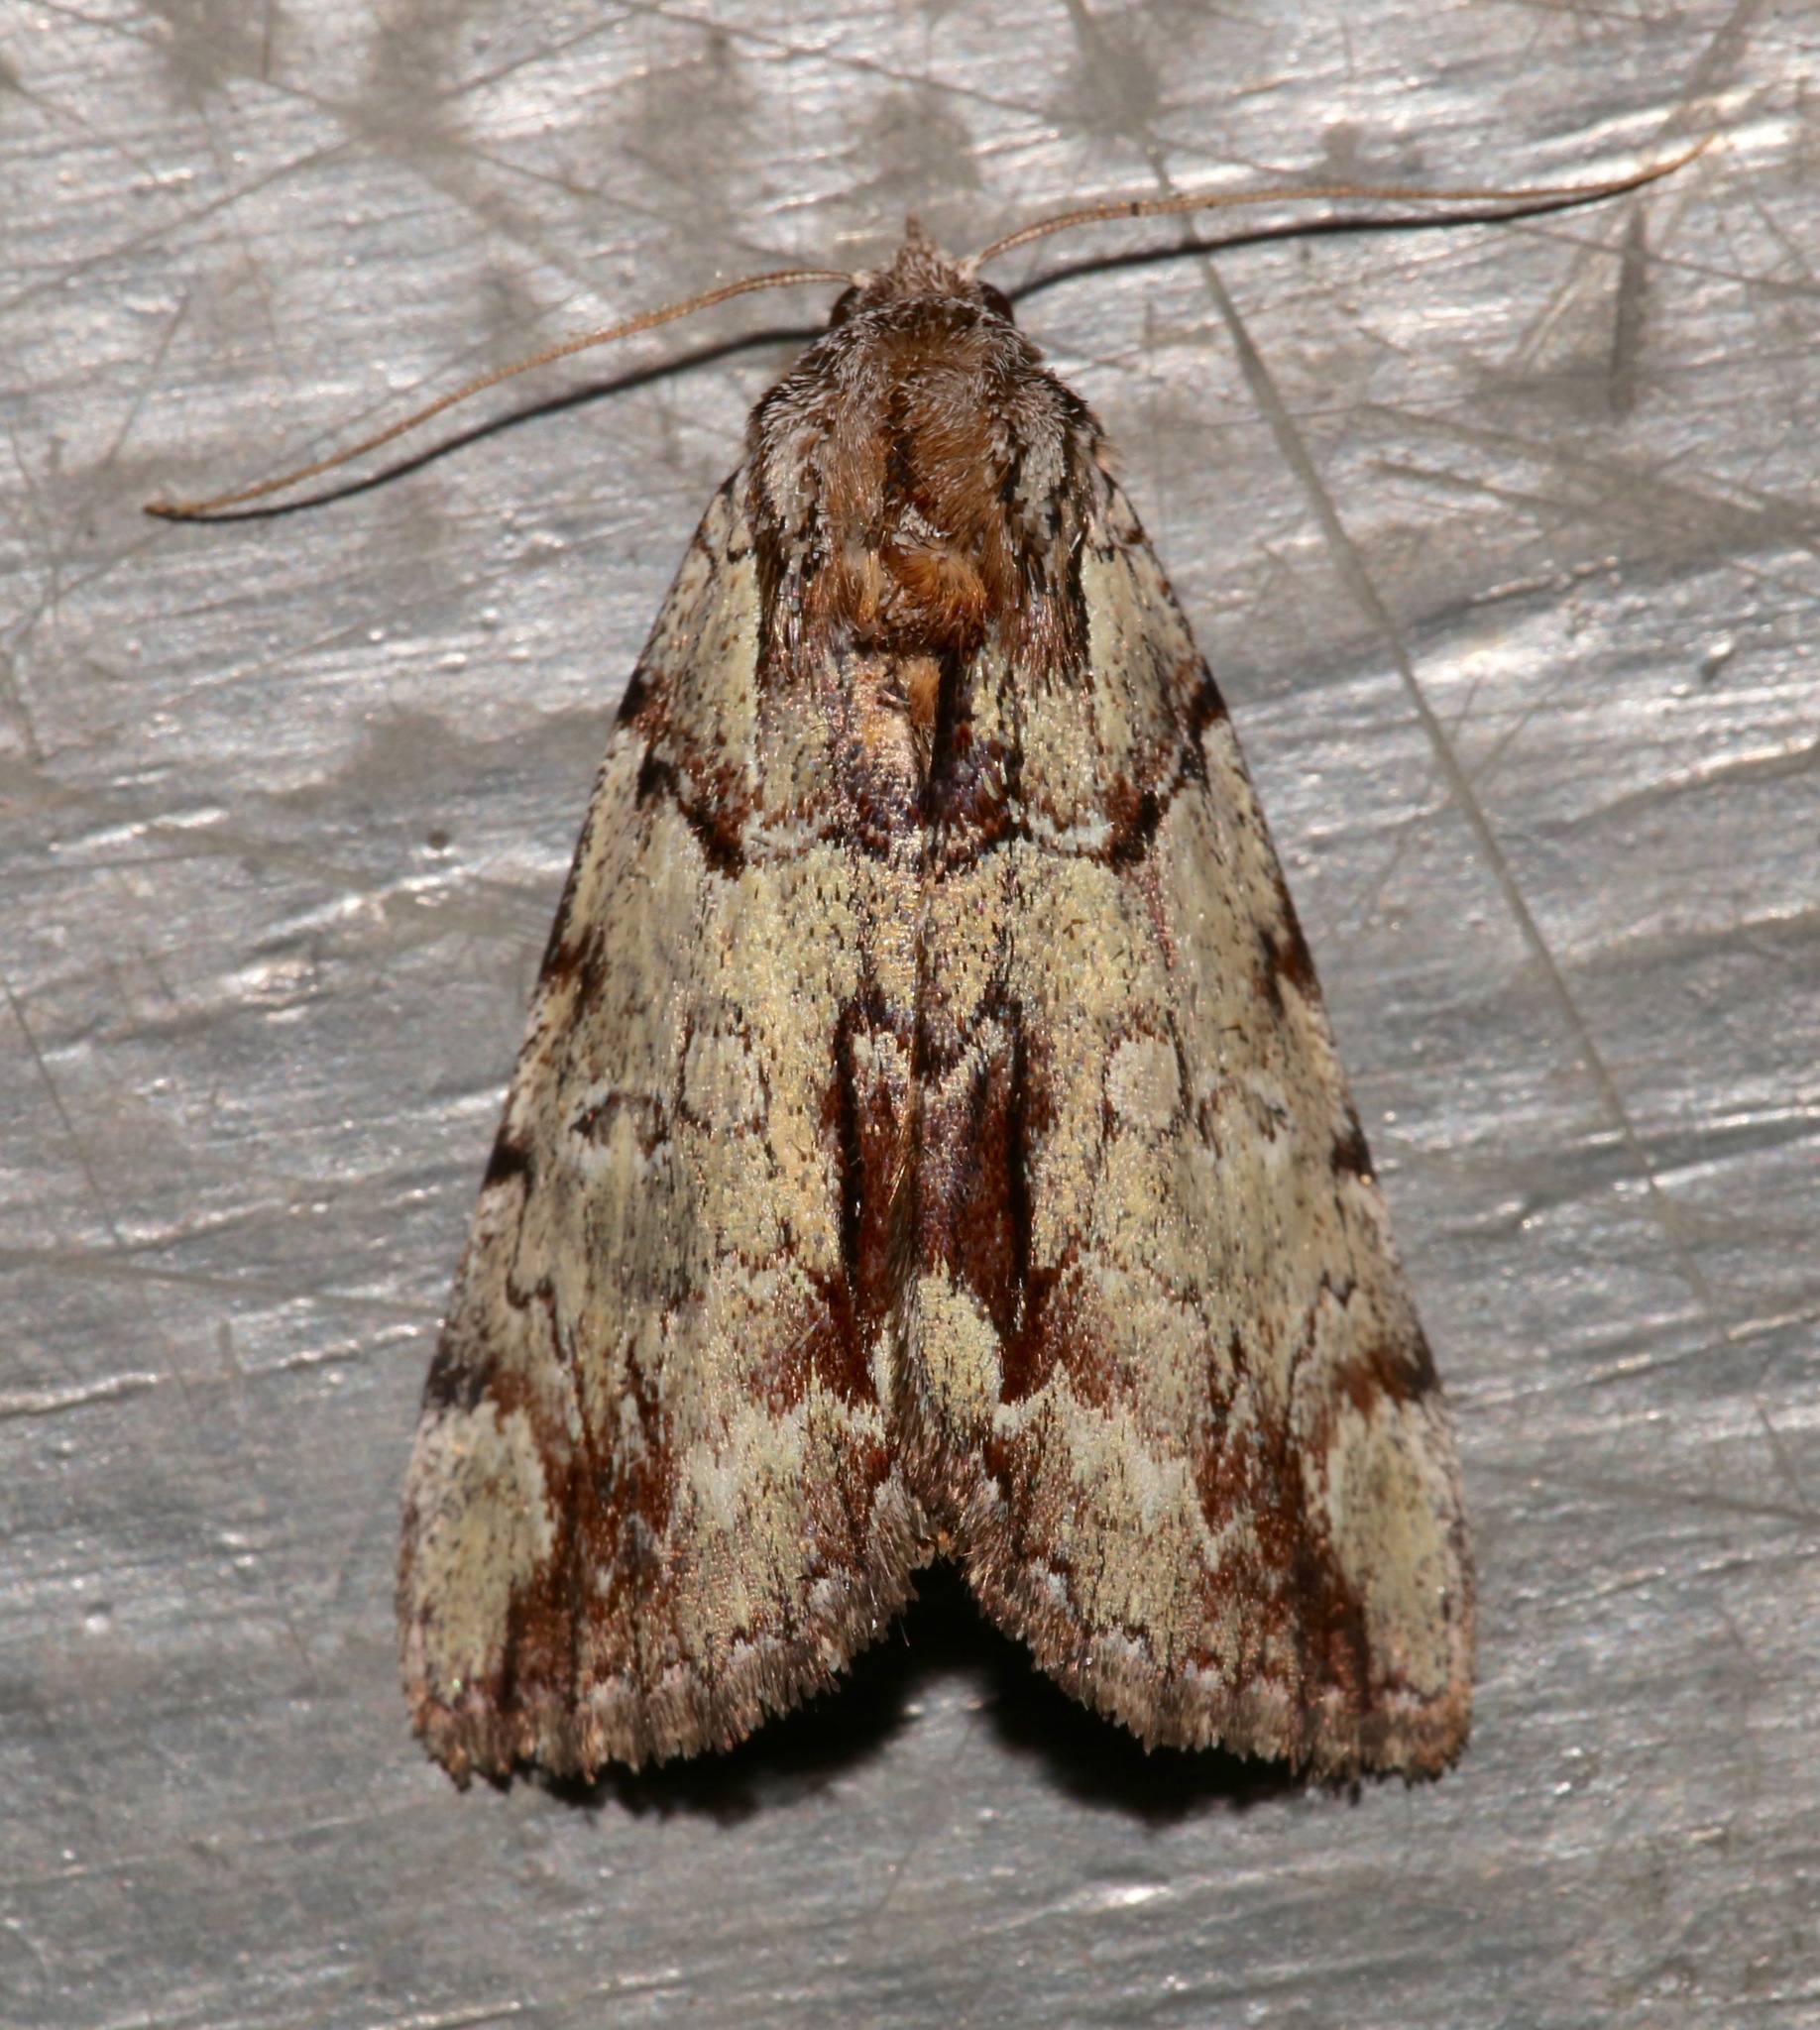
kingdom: Animalia
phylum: Arthropoda
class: Insecta
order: Lepidoptera
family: Erebidae
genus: Catocala
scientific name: Catocala praeclara
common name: Praeclara underwing
